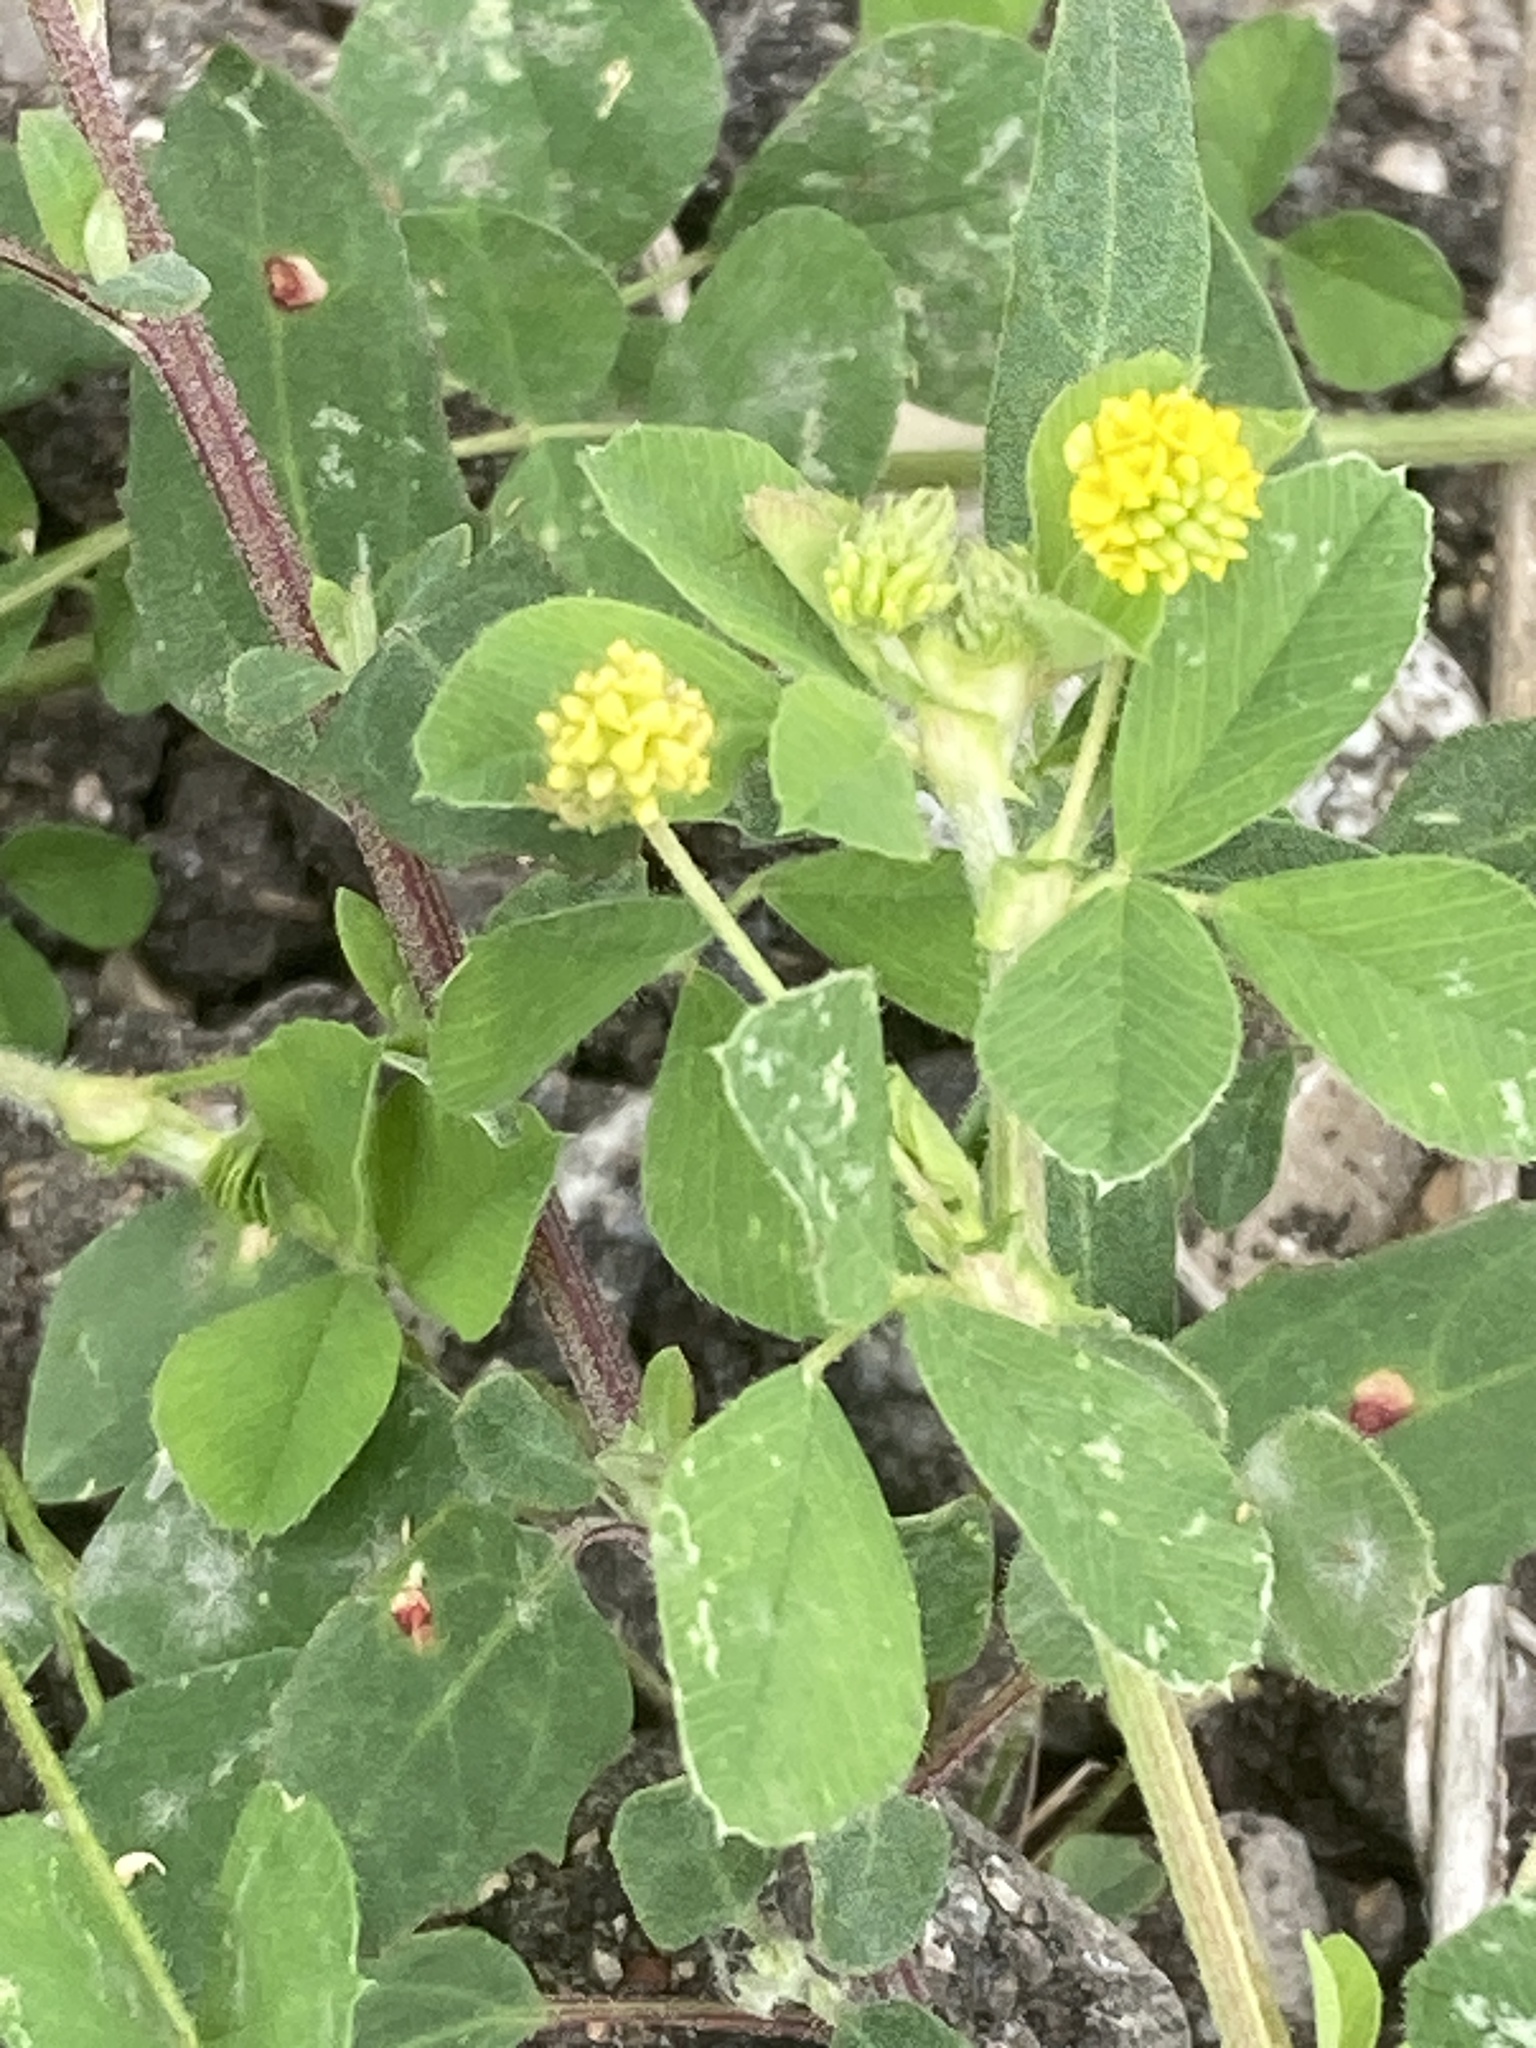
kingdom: Plantae
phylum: Tracheophyta
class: Magnoliopsida
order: Fabales
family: Fabaceae
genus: Medicago
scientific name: Medicago lupulina
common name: Black medick
